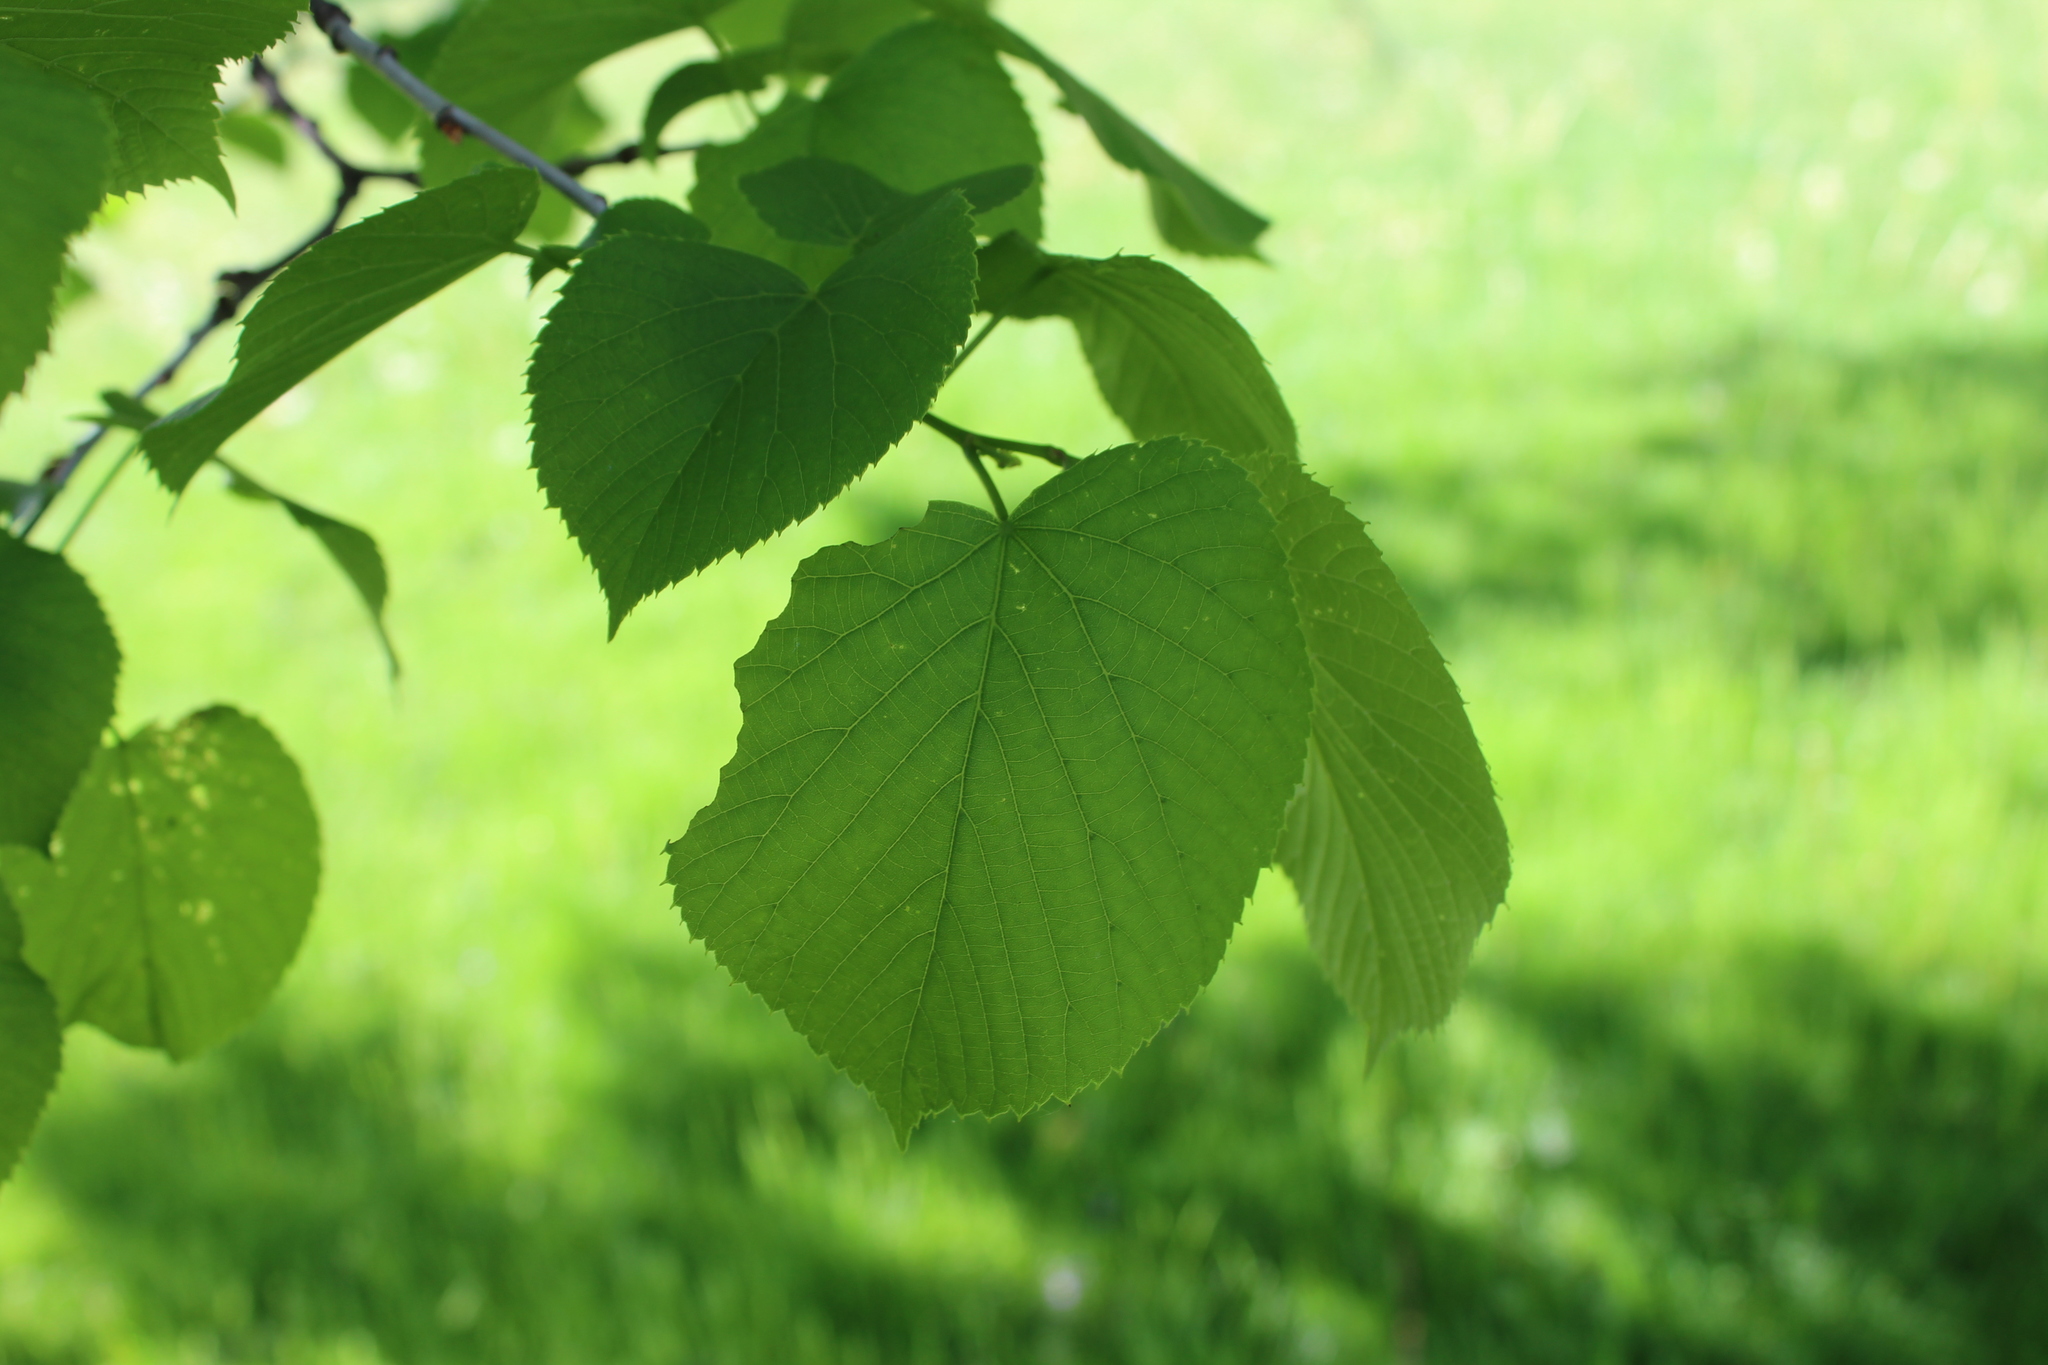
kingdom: Plantae
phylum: Tracheophyta
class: Magnoliopsida
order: Malvales
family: Malvaceae
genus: Tilia
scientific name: Tilia americana
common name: Basswood
